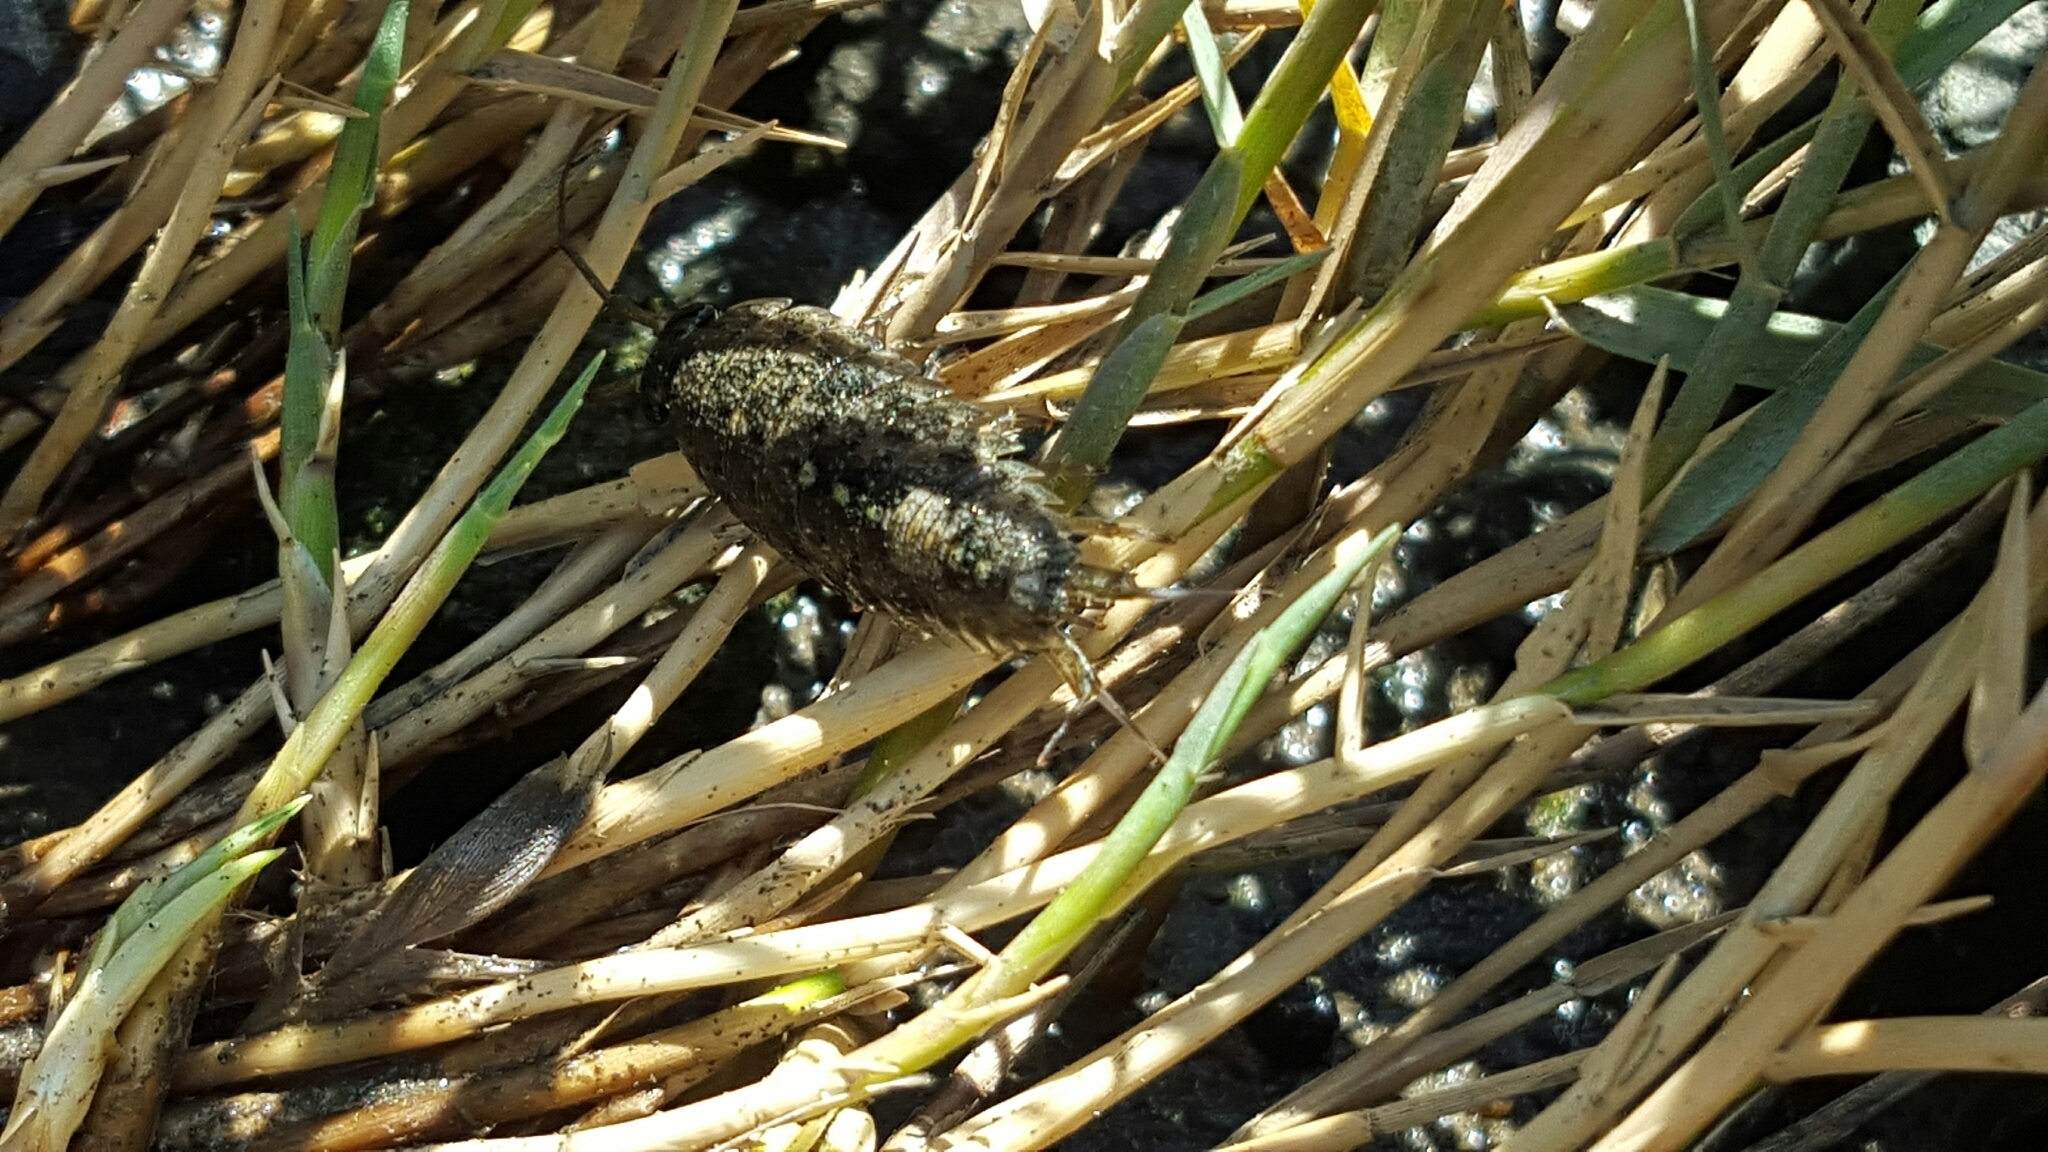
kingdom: Animalia
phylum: Arthropoda
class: Malacostraca
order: Isopoda
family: Ligiidae
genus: Ligia
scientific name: Ligia occidentalis
